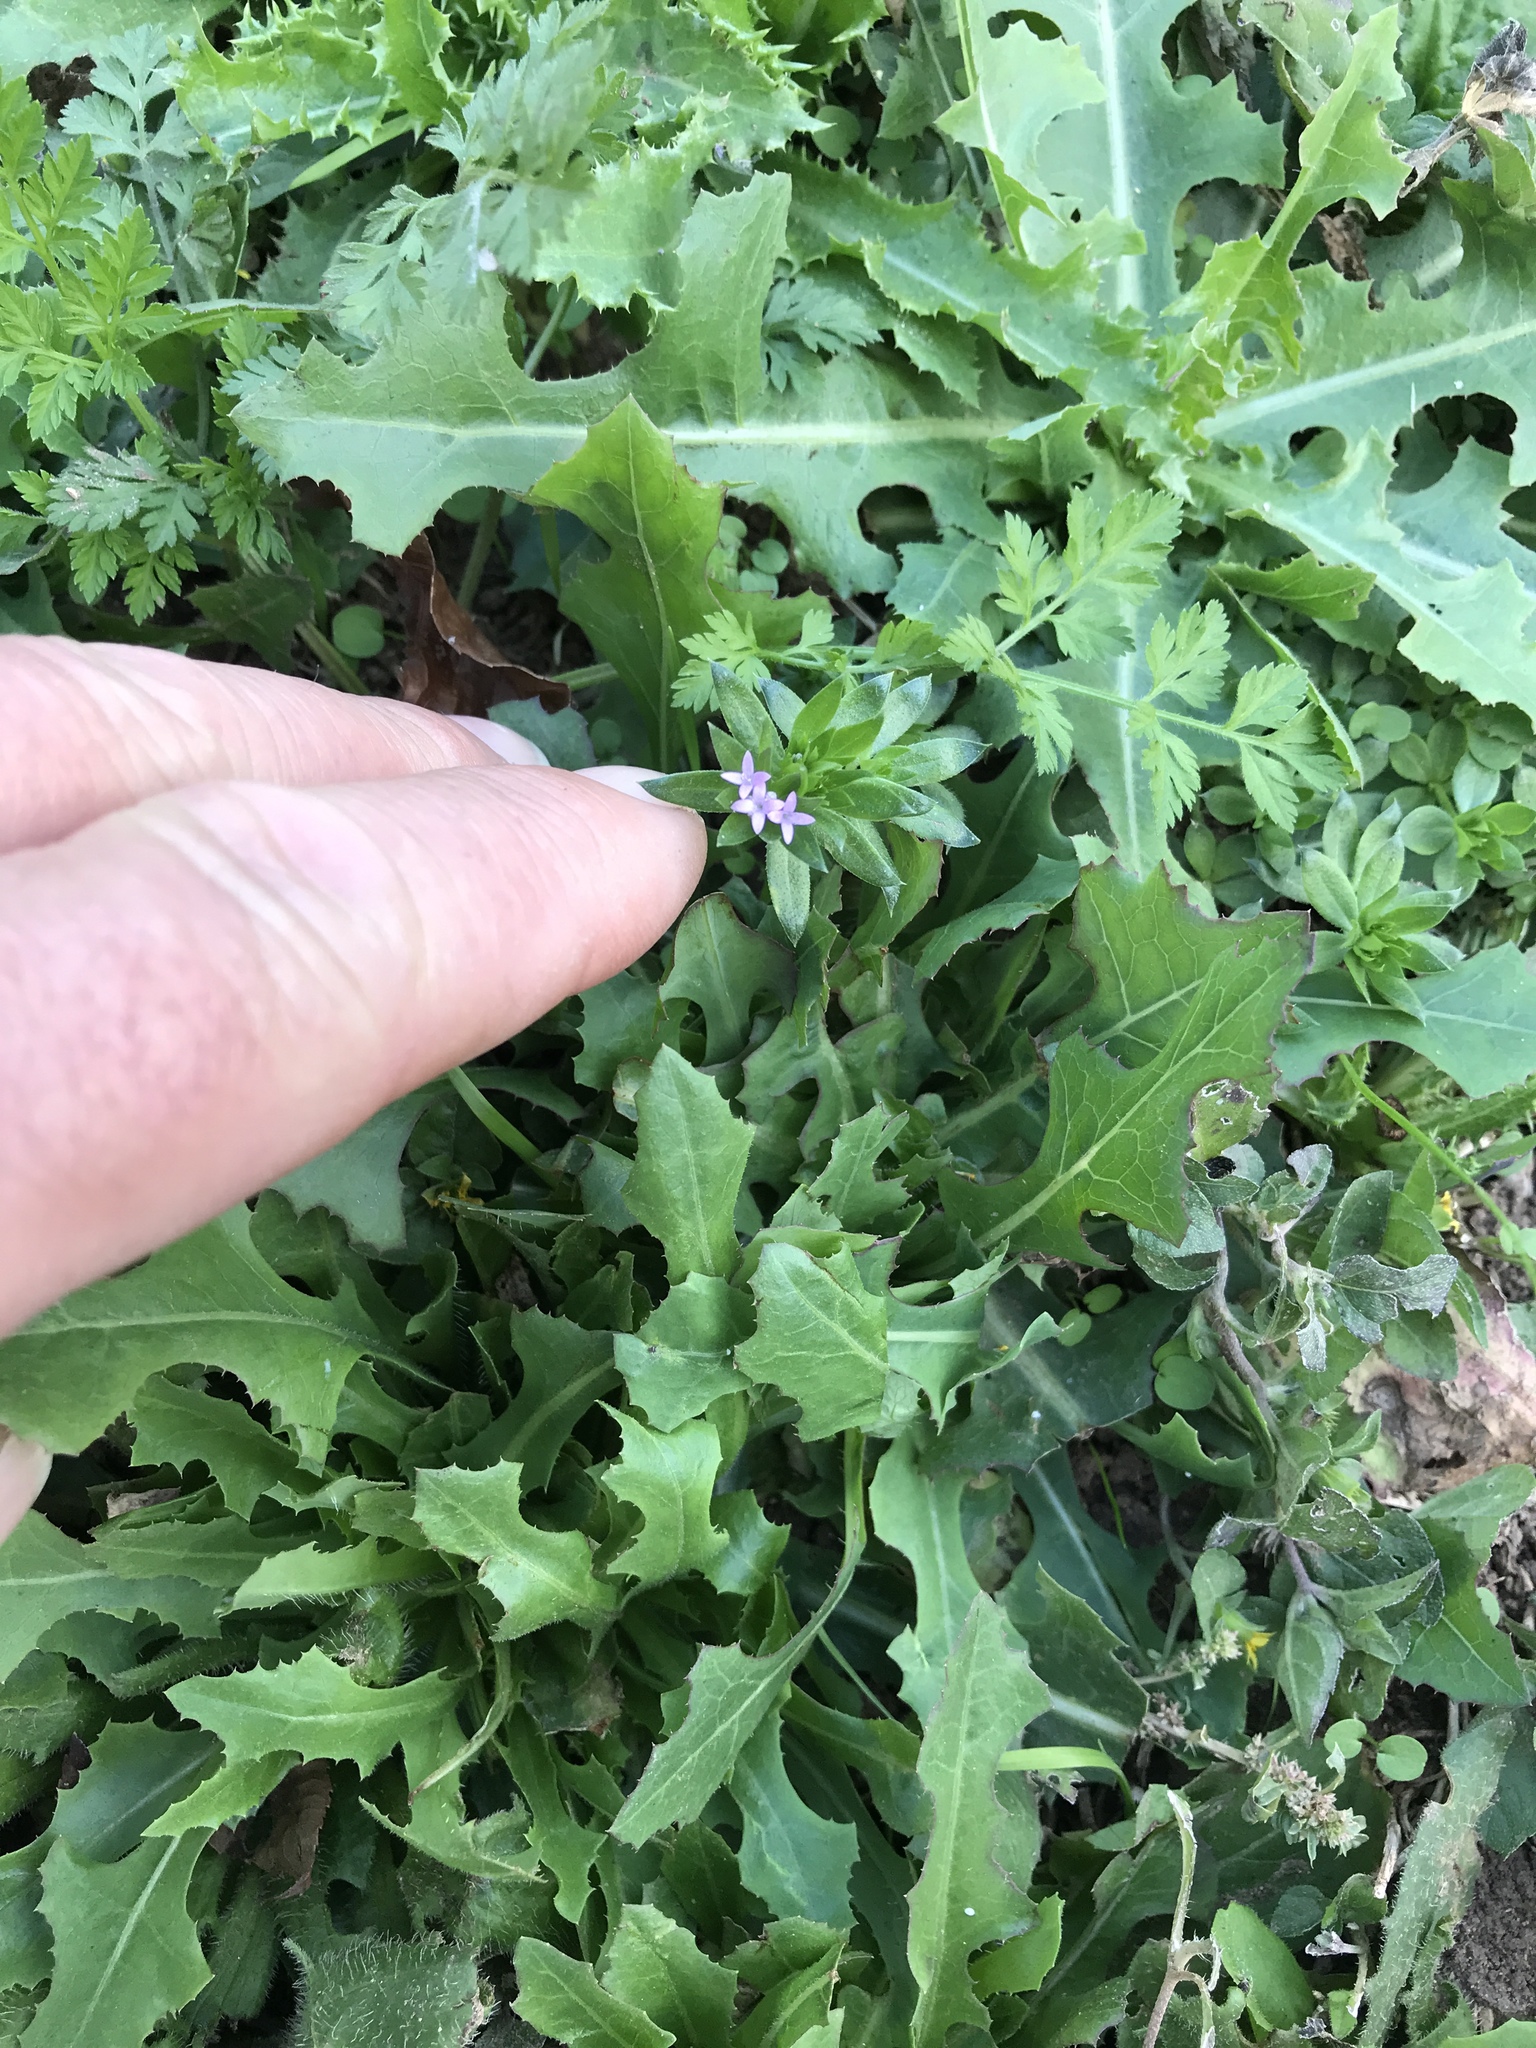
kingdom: Plantae
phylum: Tracheophyta
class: Magnoliopsida
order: Gentianales
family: Rubiaceae
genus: Sherardia
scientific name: Sherardia arvensis
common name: Field madder
